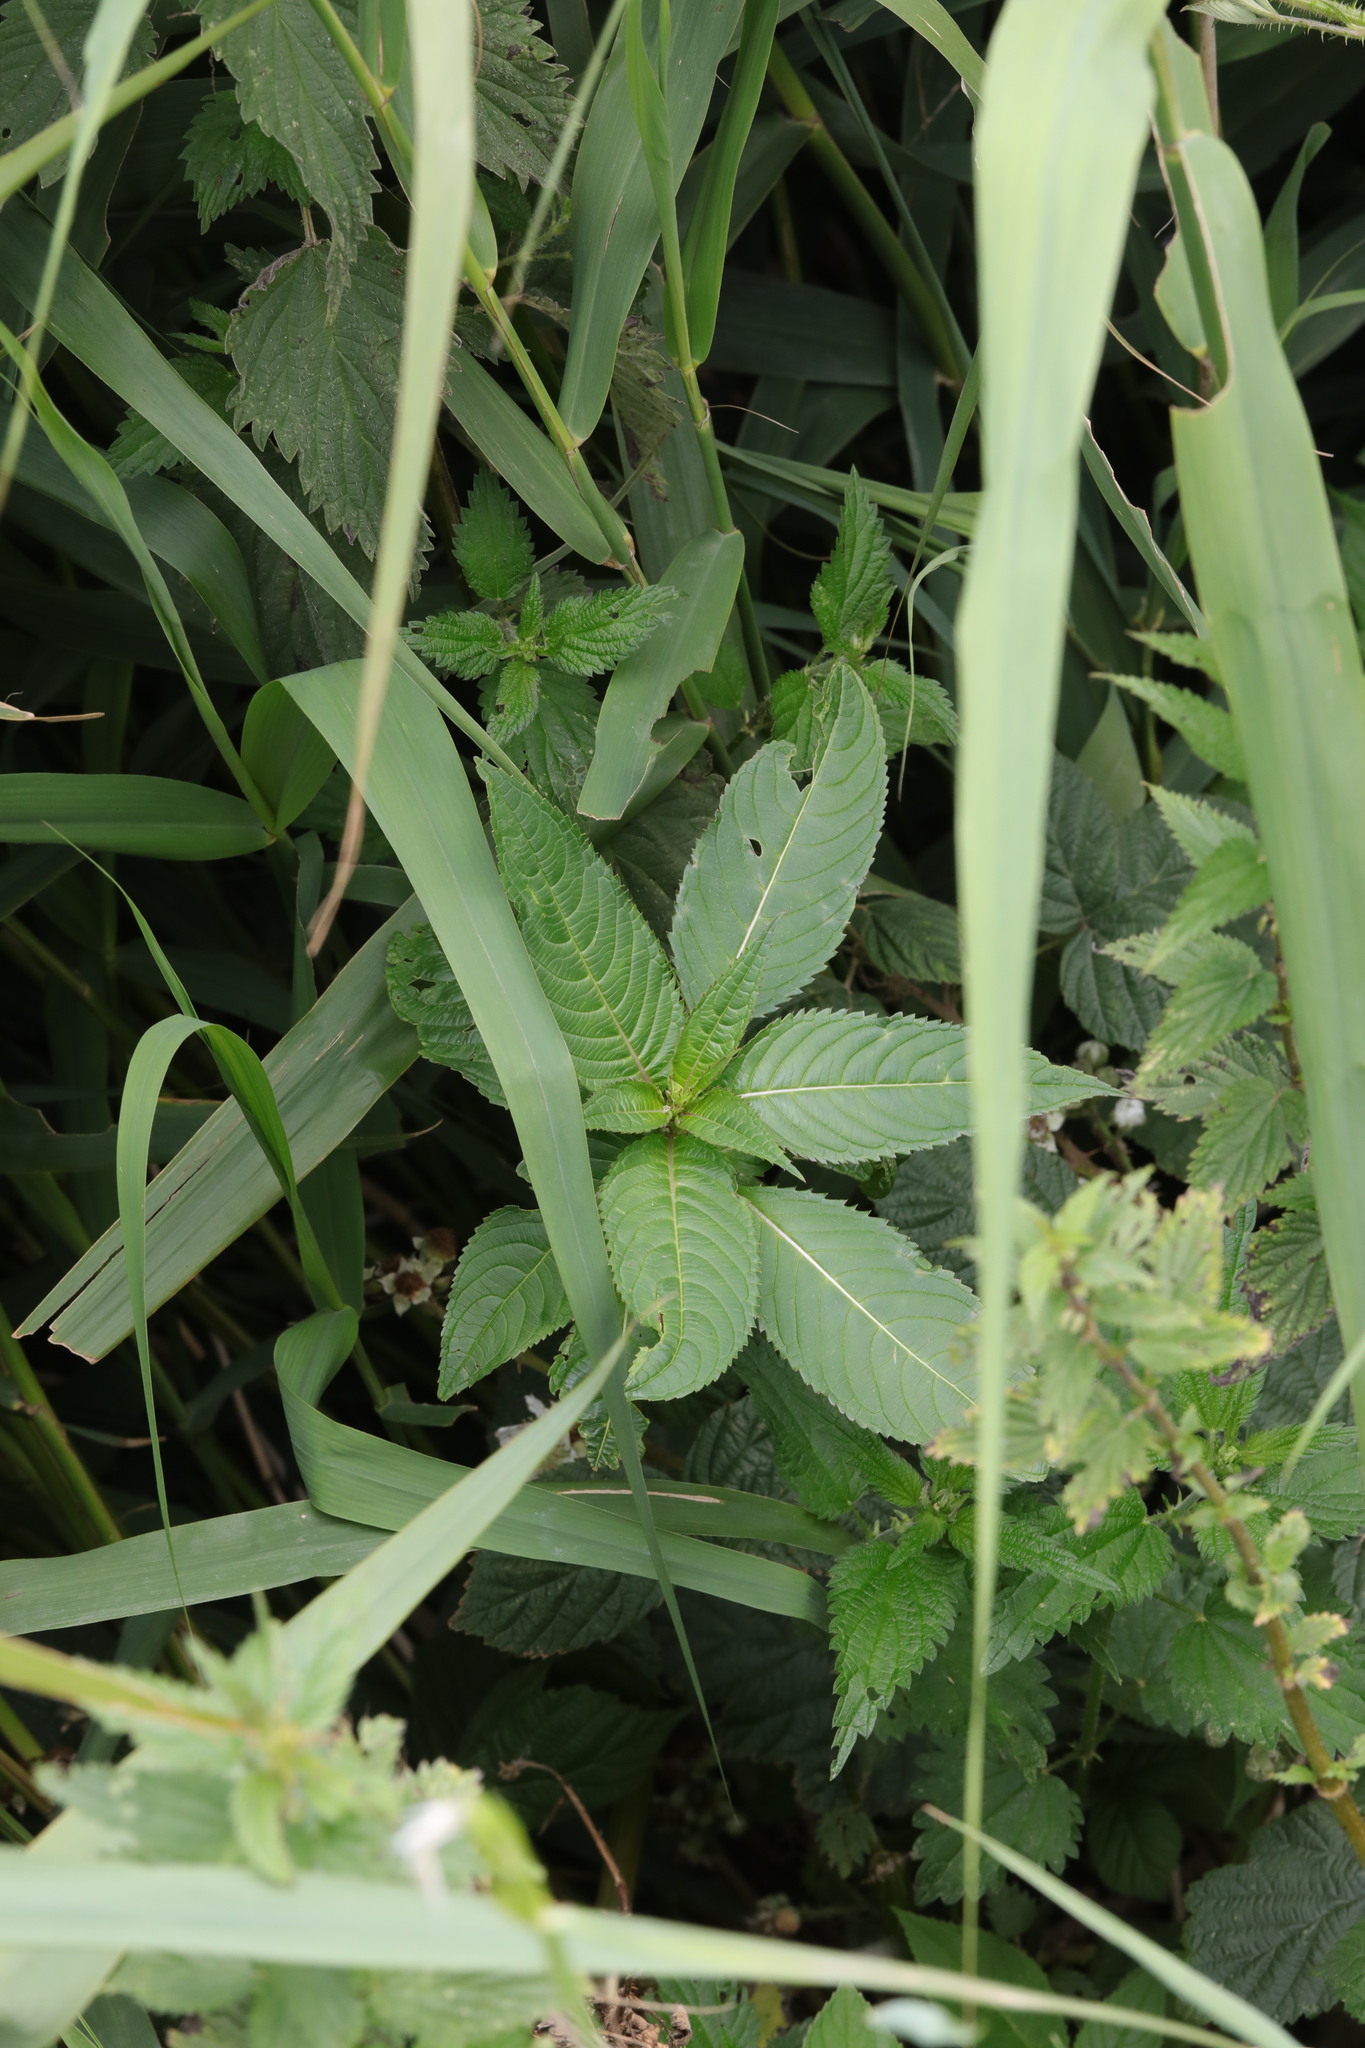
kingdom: Plantae
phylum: Tracheophyta
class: Magnoliopsida
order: Ericales
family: Balsaminaceae
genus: Impatiens
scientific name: Impatiens glandulifera
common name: Himalayan balsam
